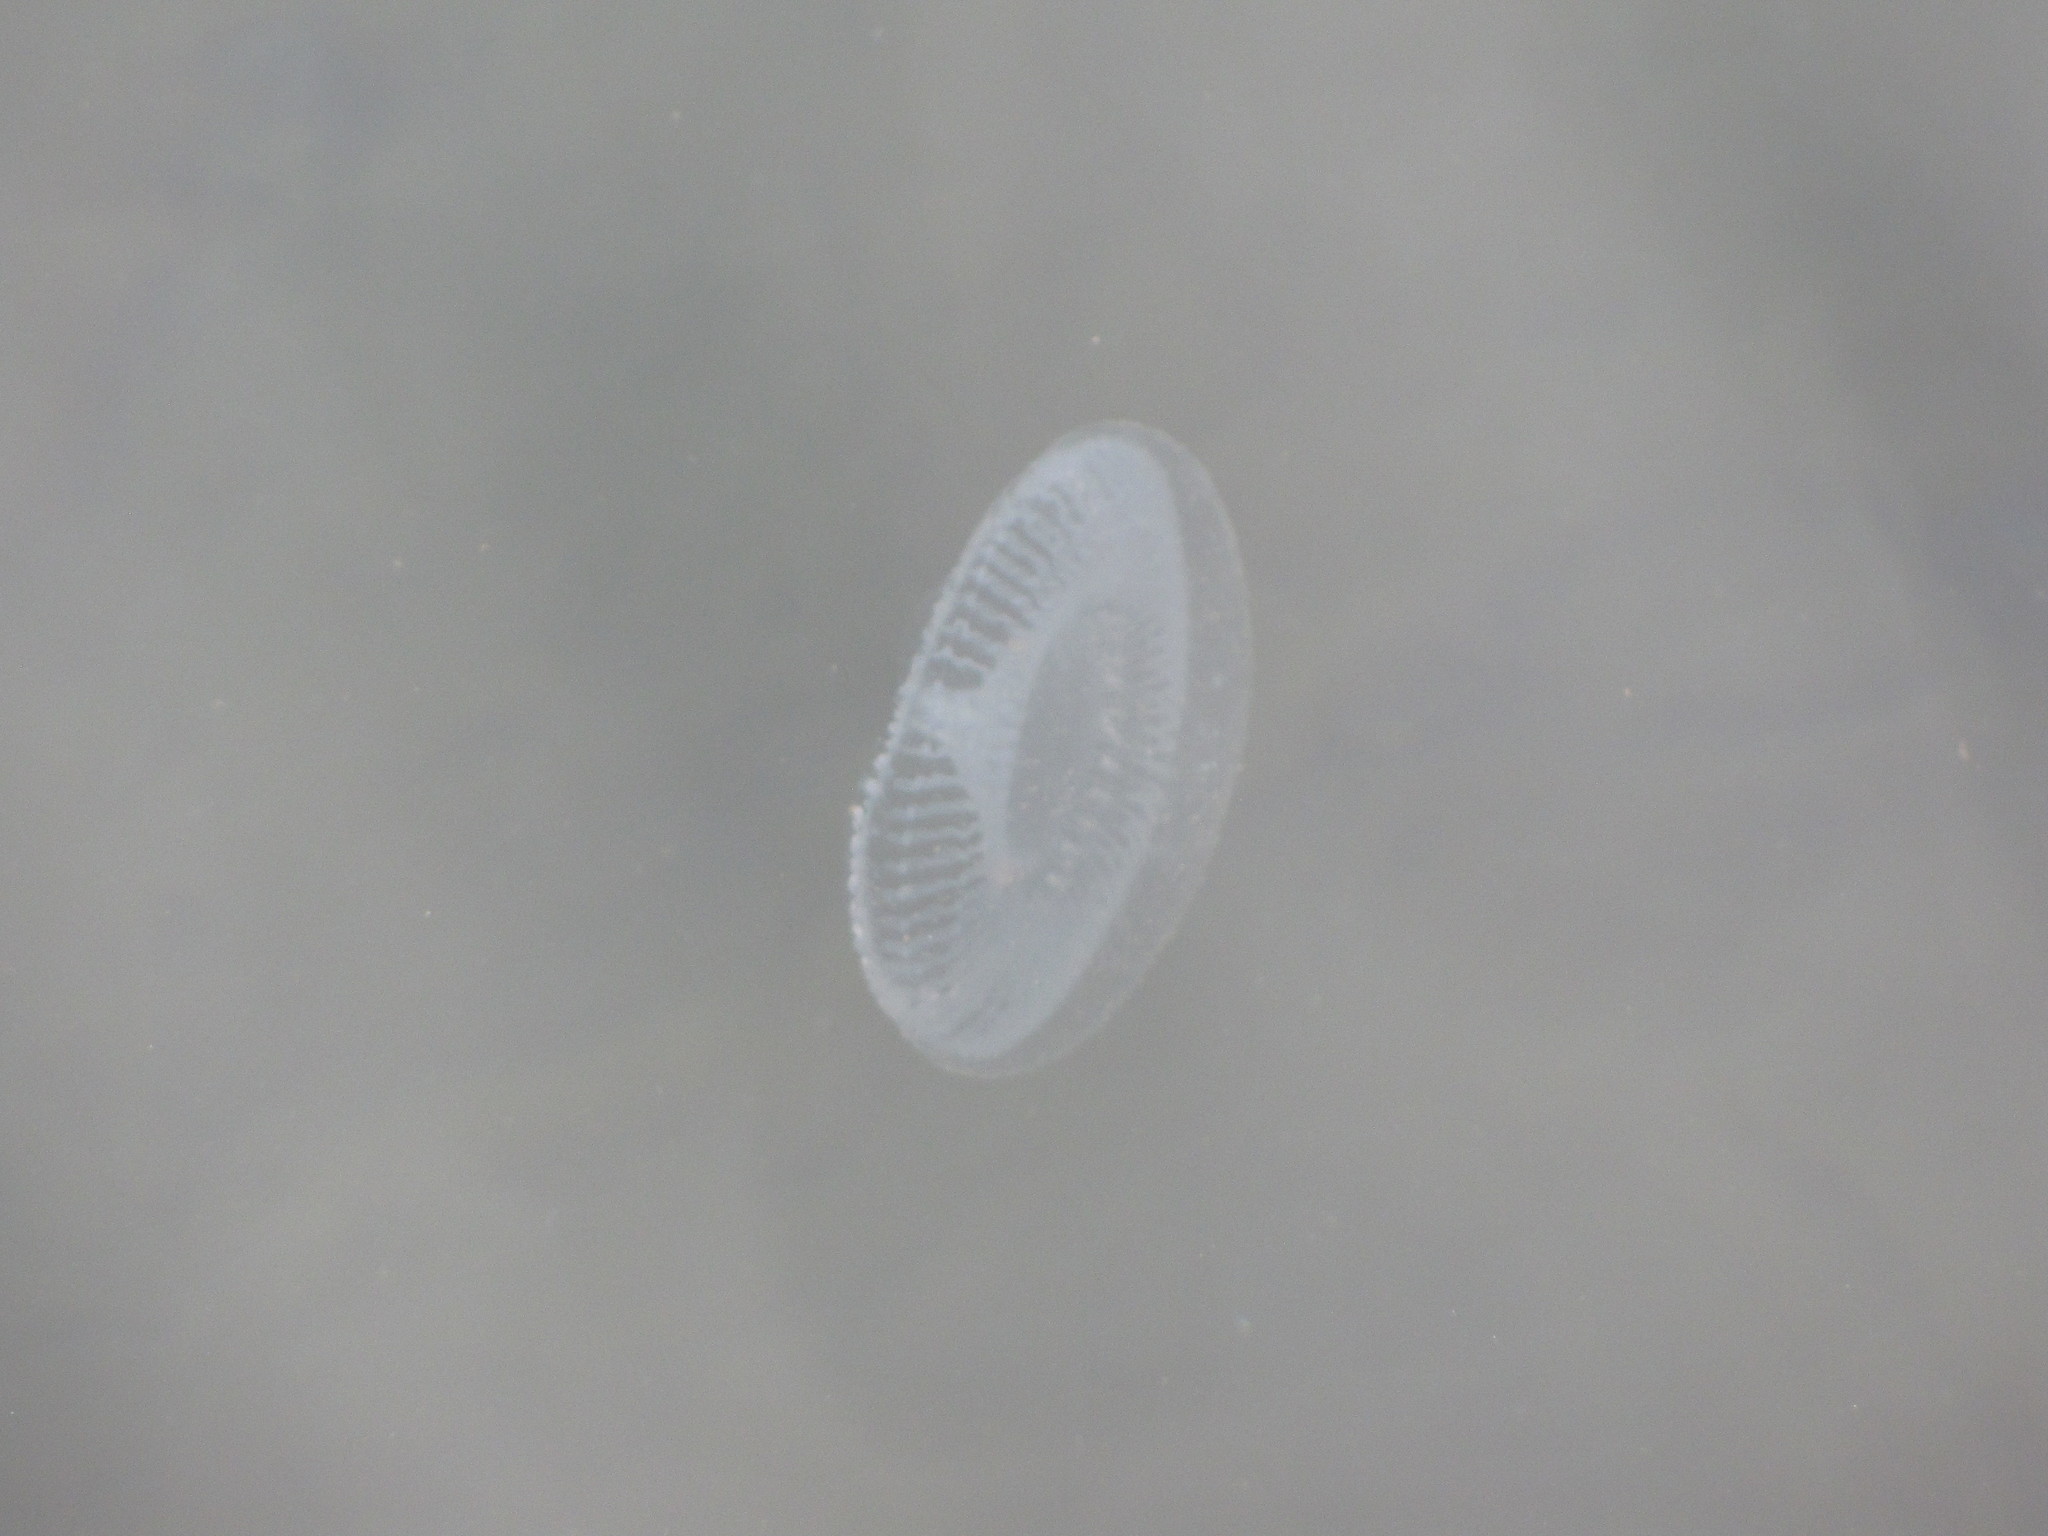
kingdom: Animalia
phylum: Cnidaria
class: Hydrozoa
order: Leptothecata
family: Aequoreidae
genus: Aequorea
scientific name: Aequorea victoria
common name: Water jellyfish
